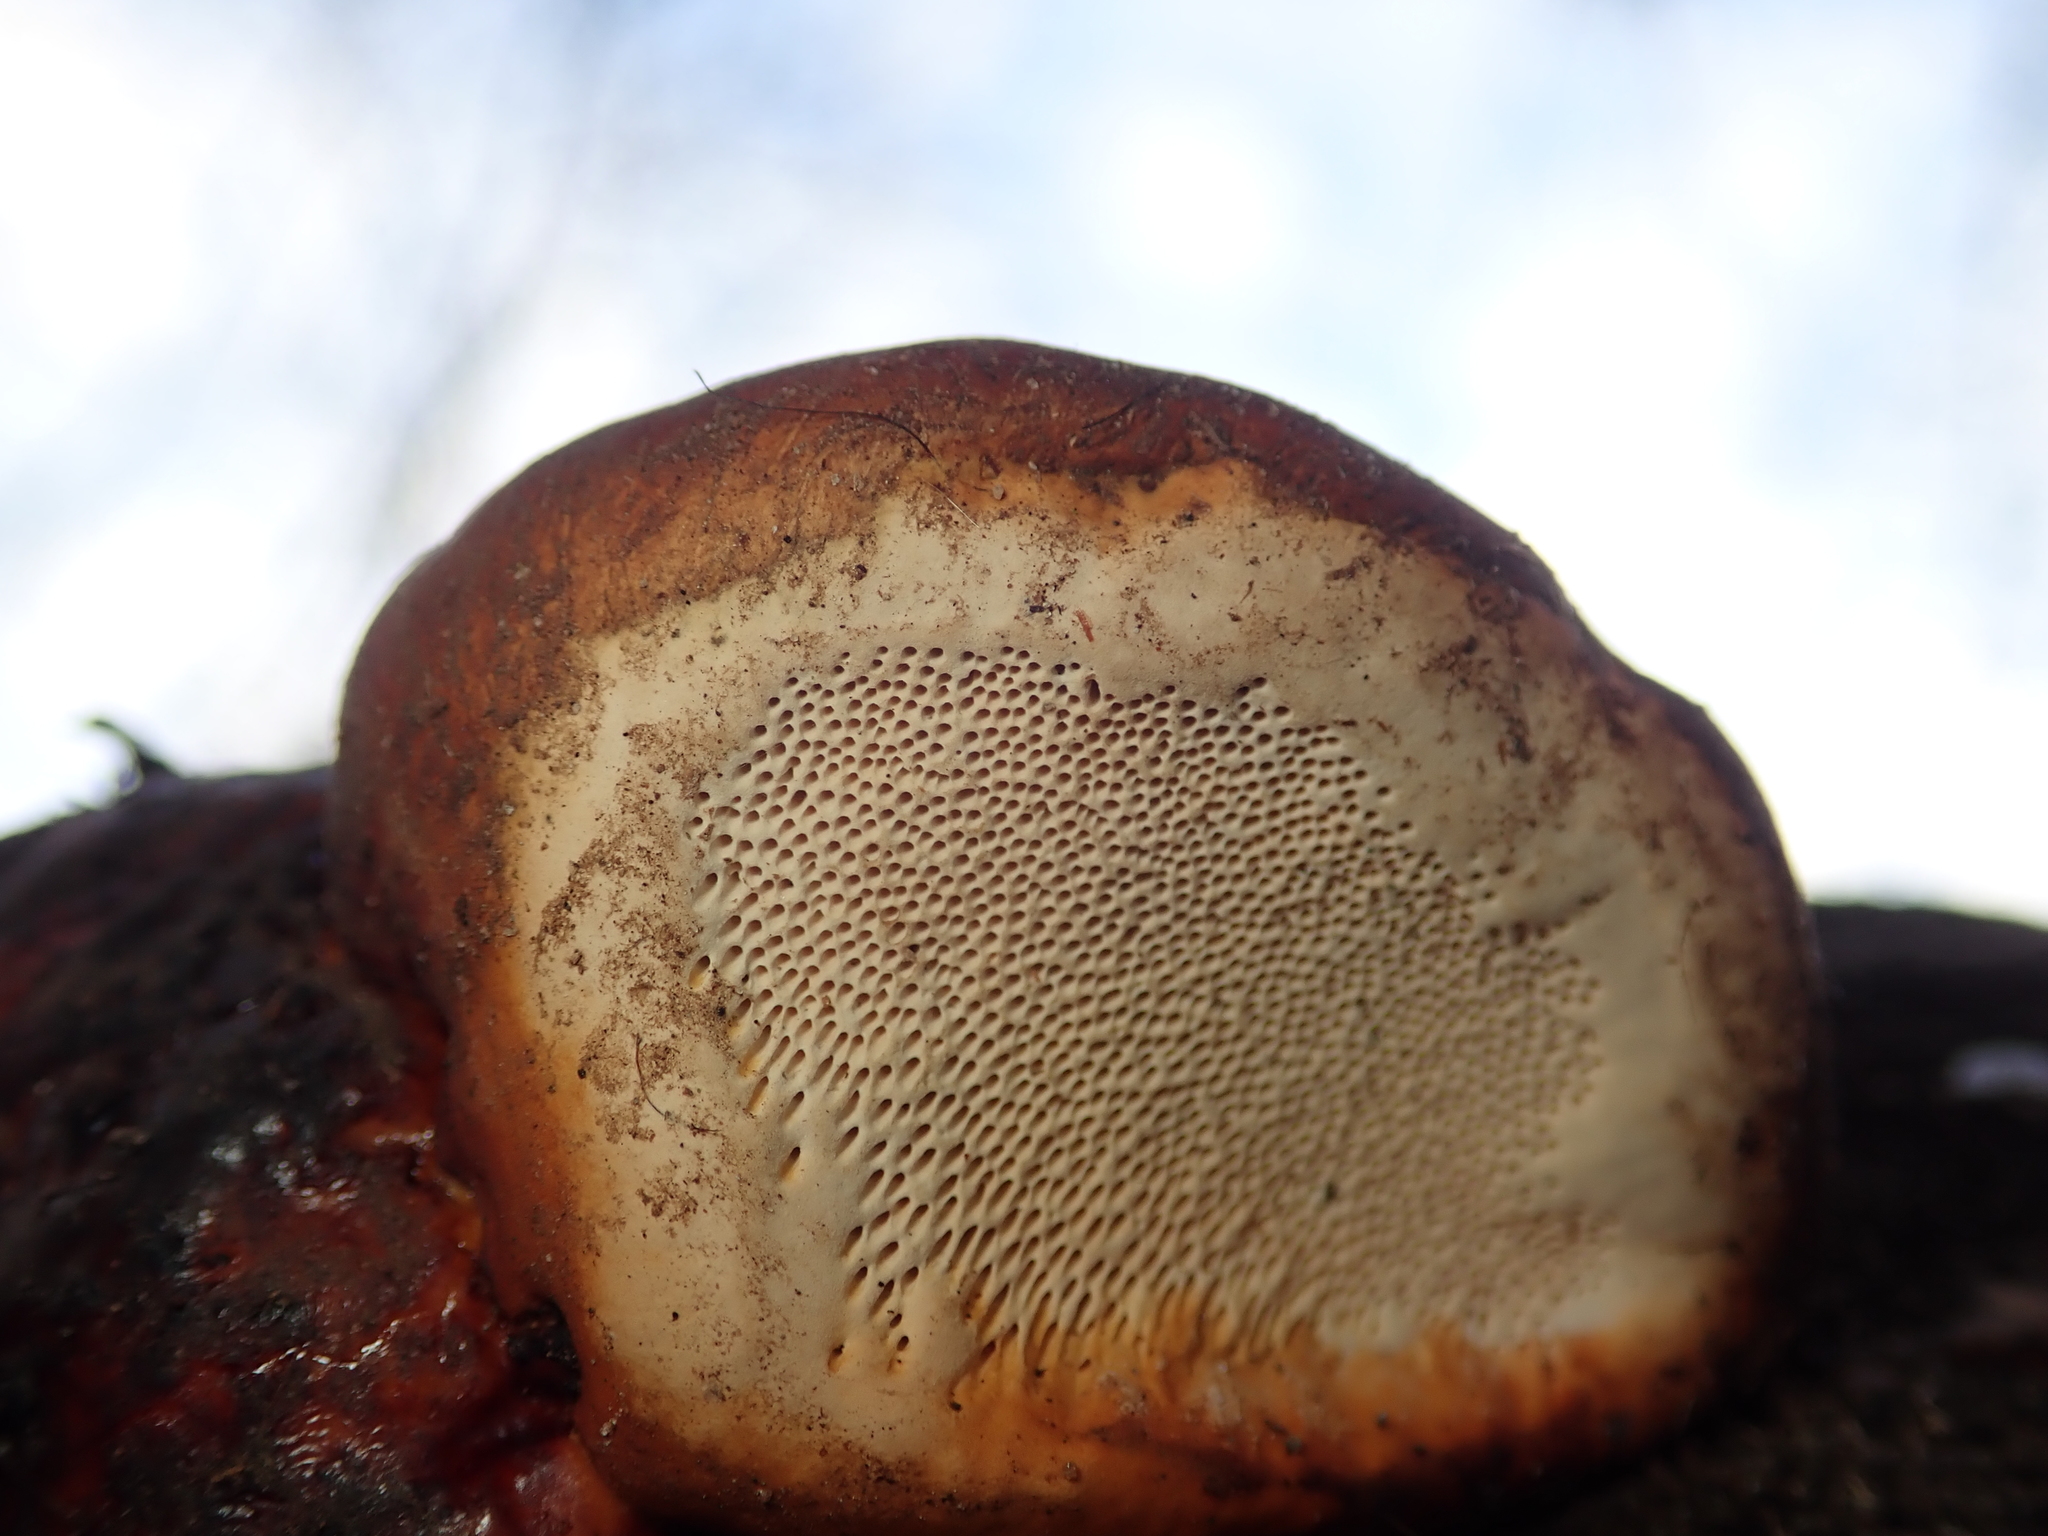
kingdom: Fungi
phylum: Basidiomycota
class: Agaricomycetes
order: Polyporales
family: Fomitopsidaceae
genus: Fomitopsis
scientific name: Fomitopsis pinicola
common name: Red-belted bracket
